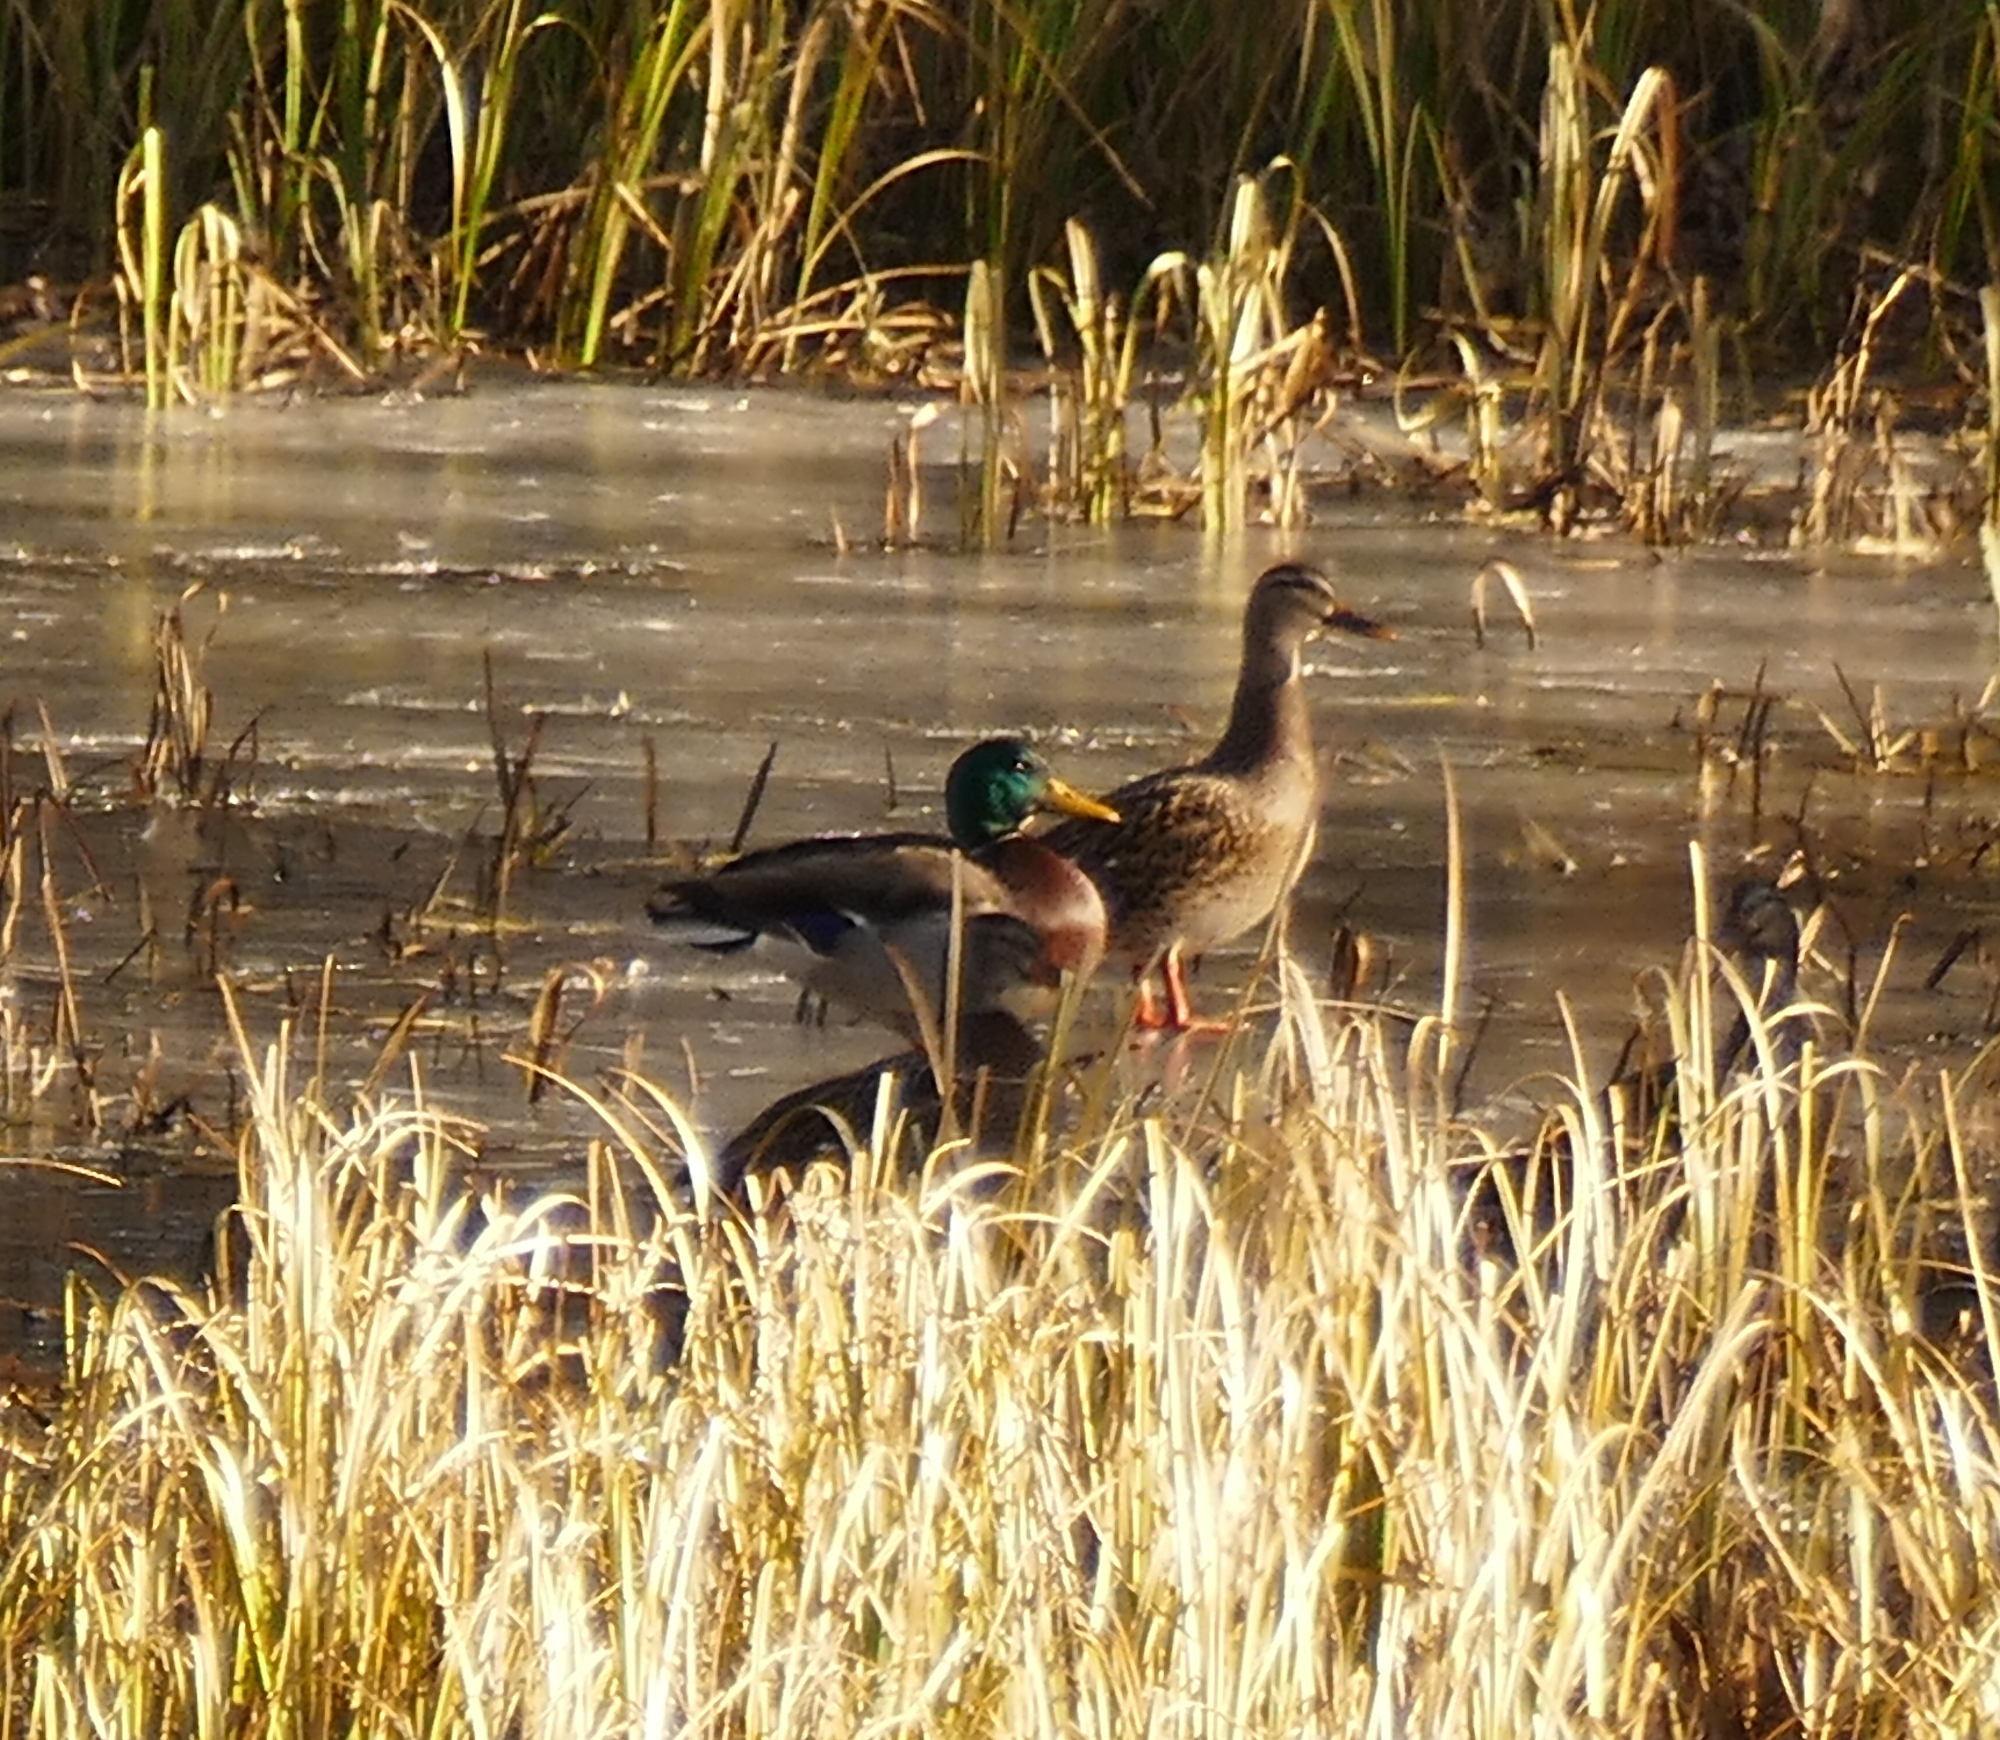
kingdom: Animalia
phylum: Chordata
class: Aves
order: Anseriformes
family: Anatidae
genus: Anas
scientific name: Anas platyrhynchos
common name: Mallard
